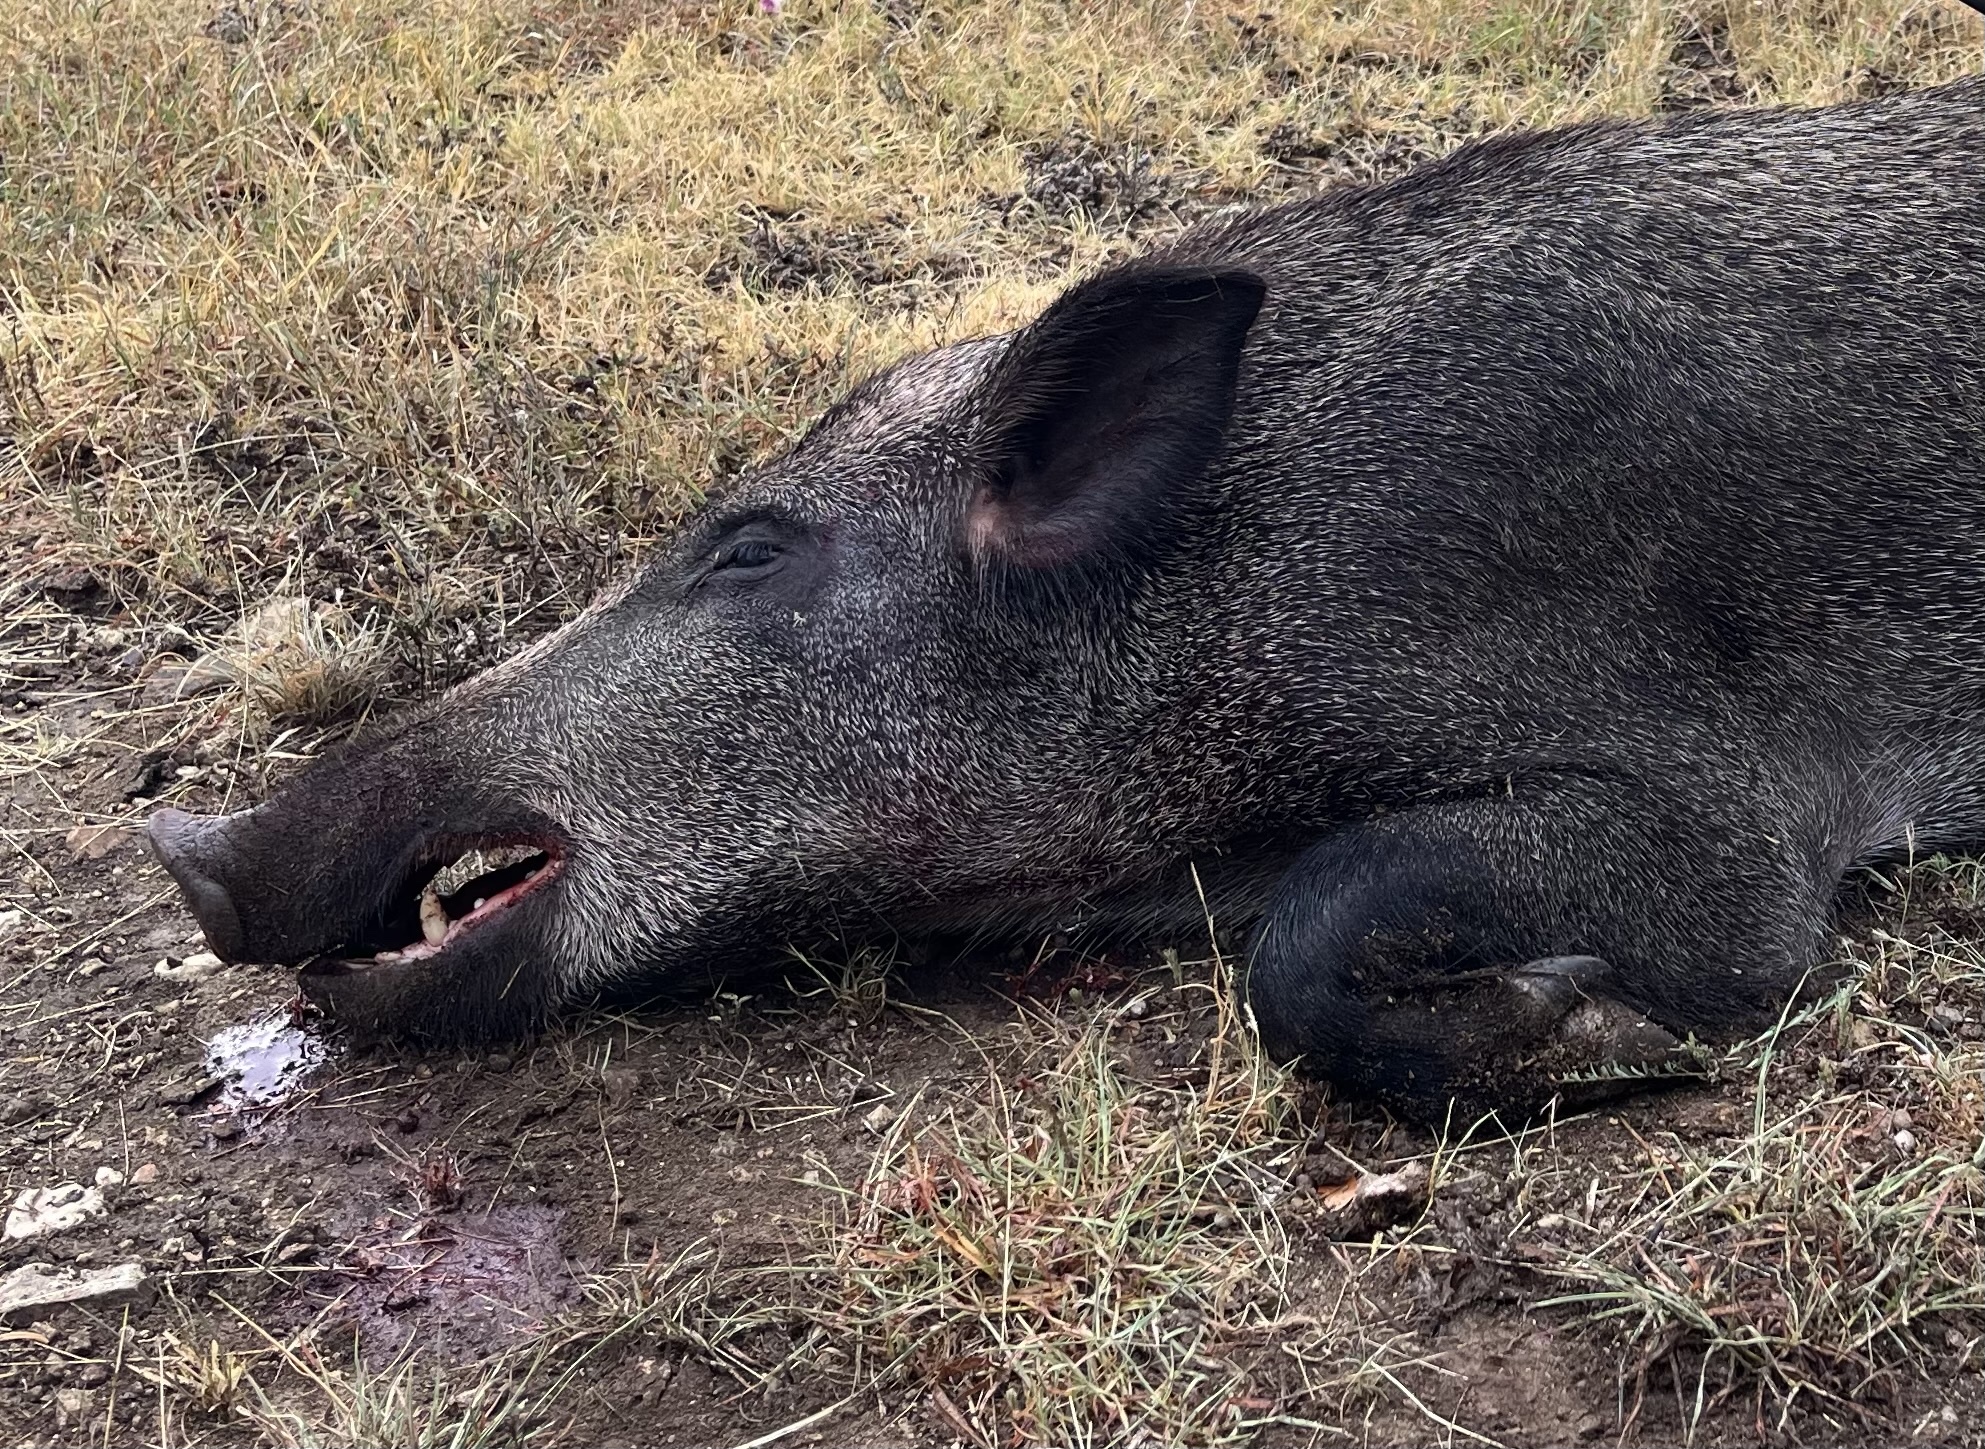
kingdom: Animalia
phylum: Chordata
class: Mammalia
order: Artiodactyla
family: Suidae
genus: Sus
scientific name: Sus scrofa
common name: Wild boar
